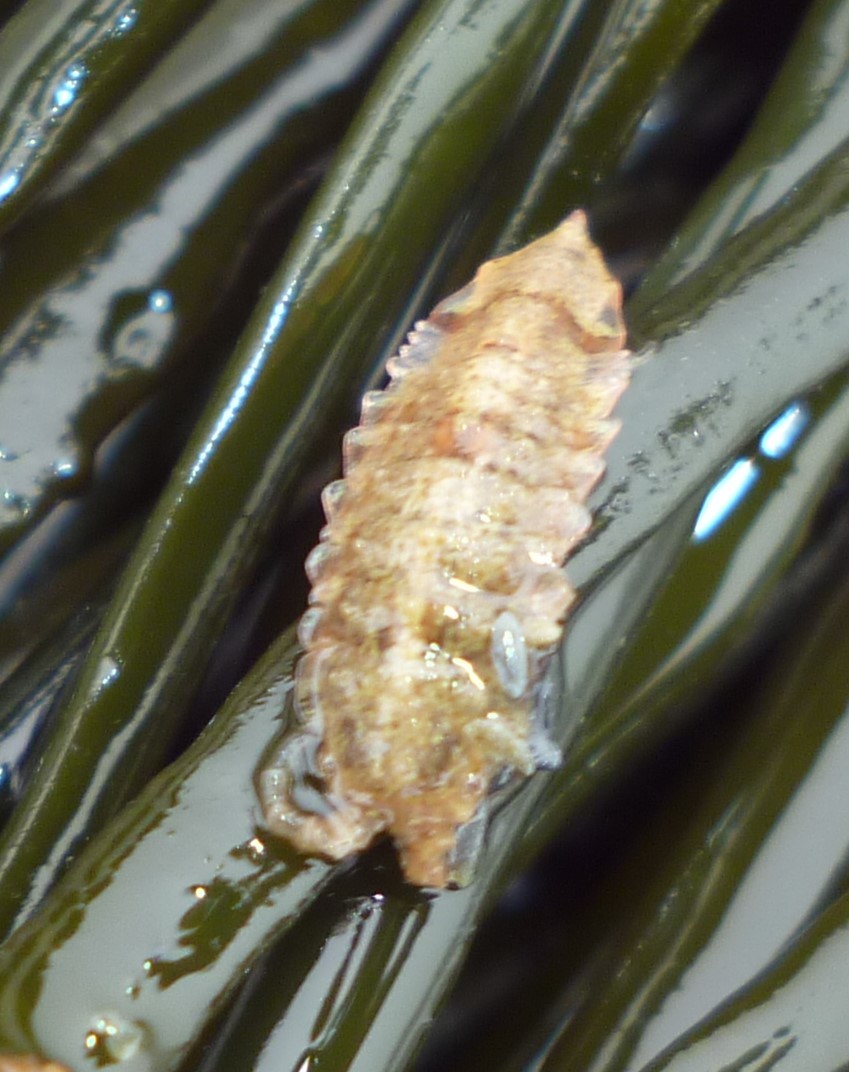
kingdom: Animalia
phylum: Arthropoda
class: Malacostraca
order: Isopoda
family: Idoteidae
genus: Idotea
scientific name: Idotea phosphorea
